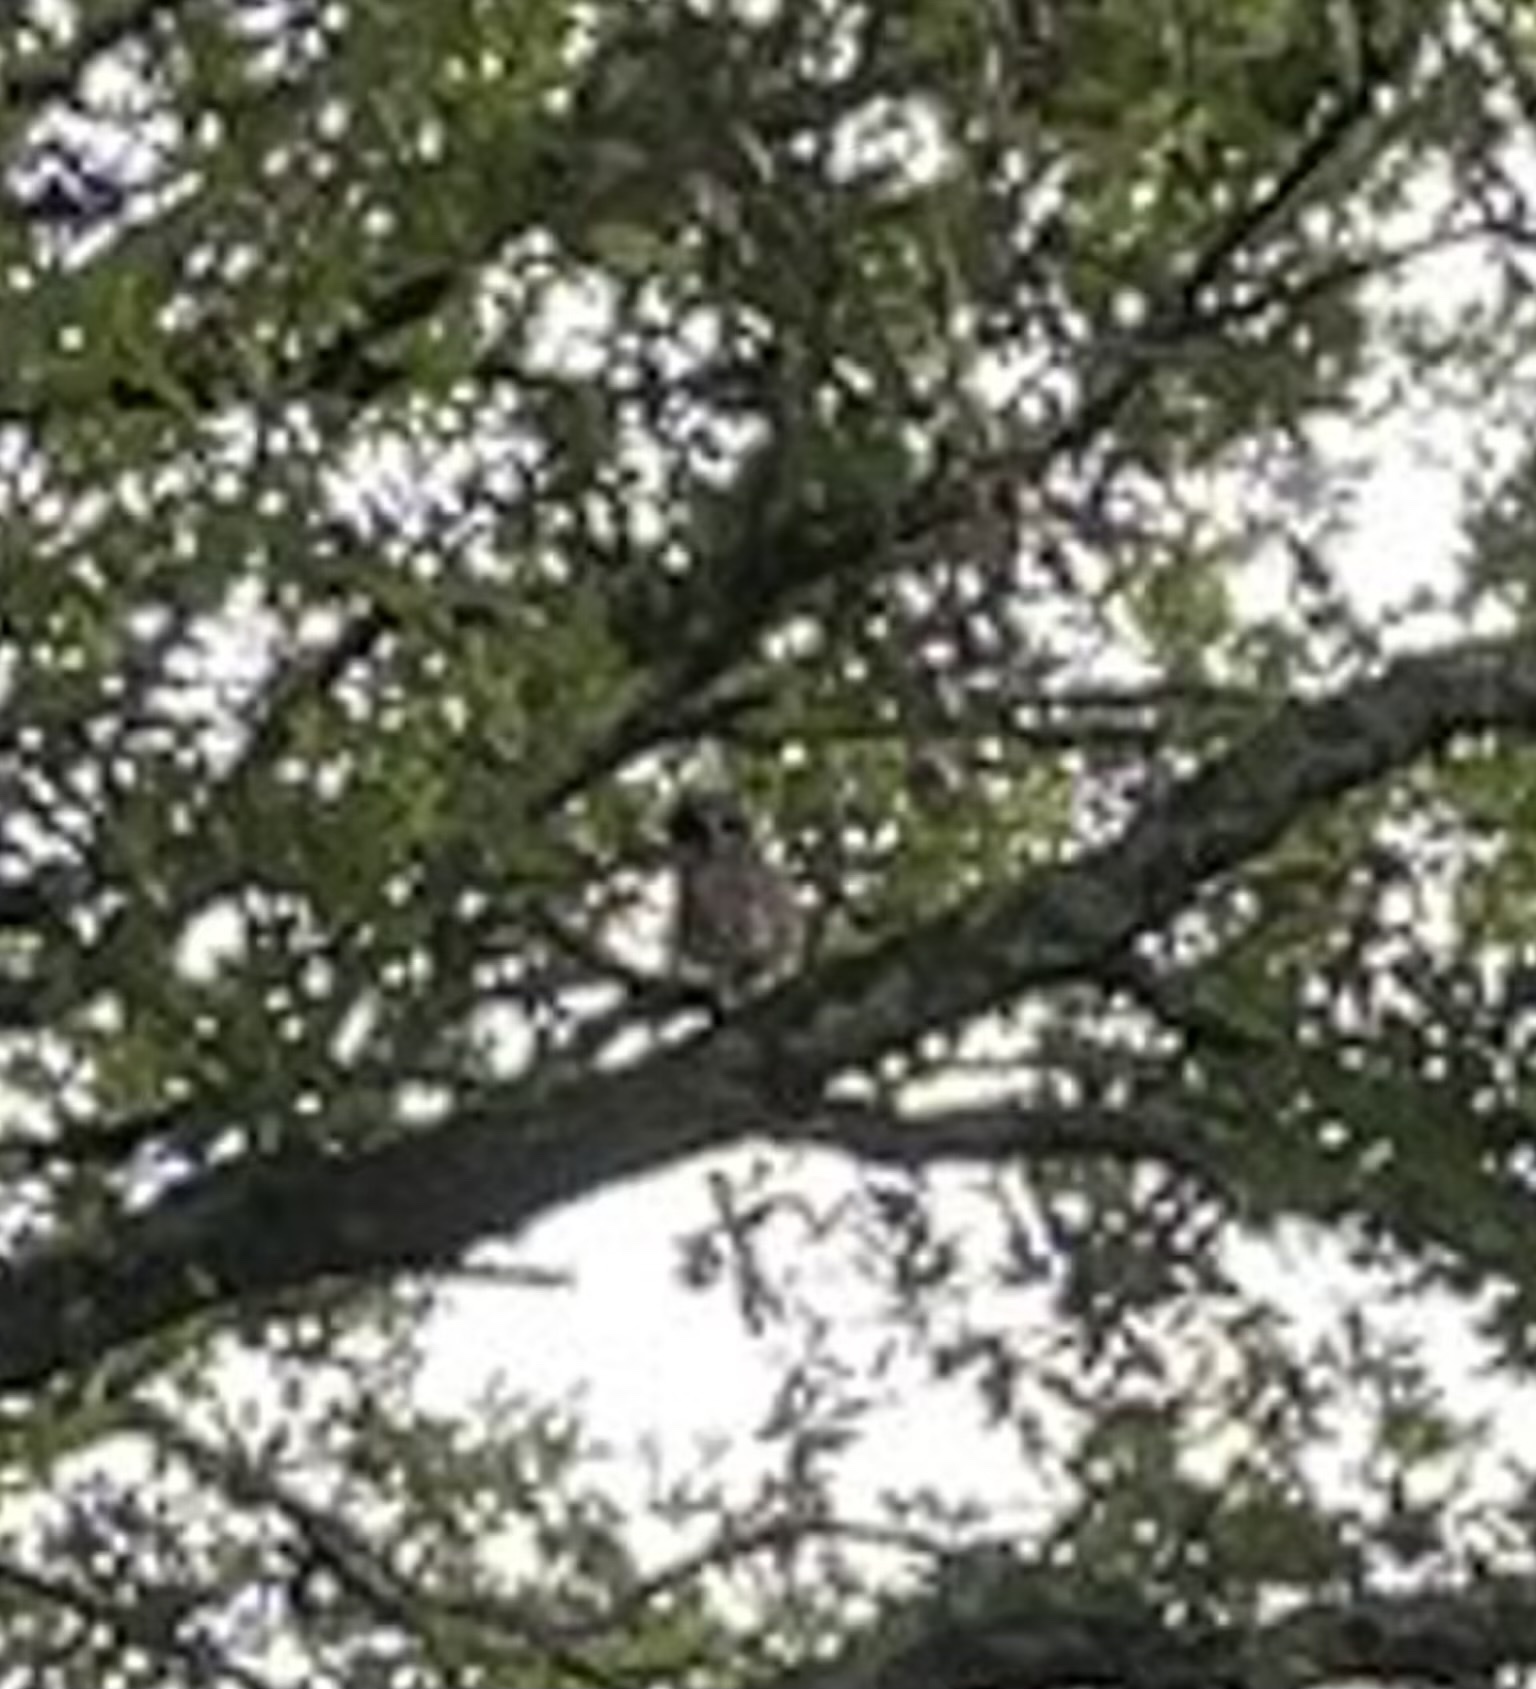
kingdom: Animalia
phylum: Chordata
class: Aves
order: Strigiformes
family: Strigidae
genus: Strix
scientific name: Strix varia
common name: Barred owl
